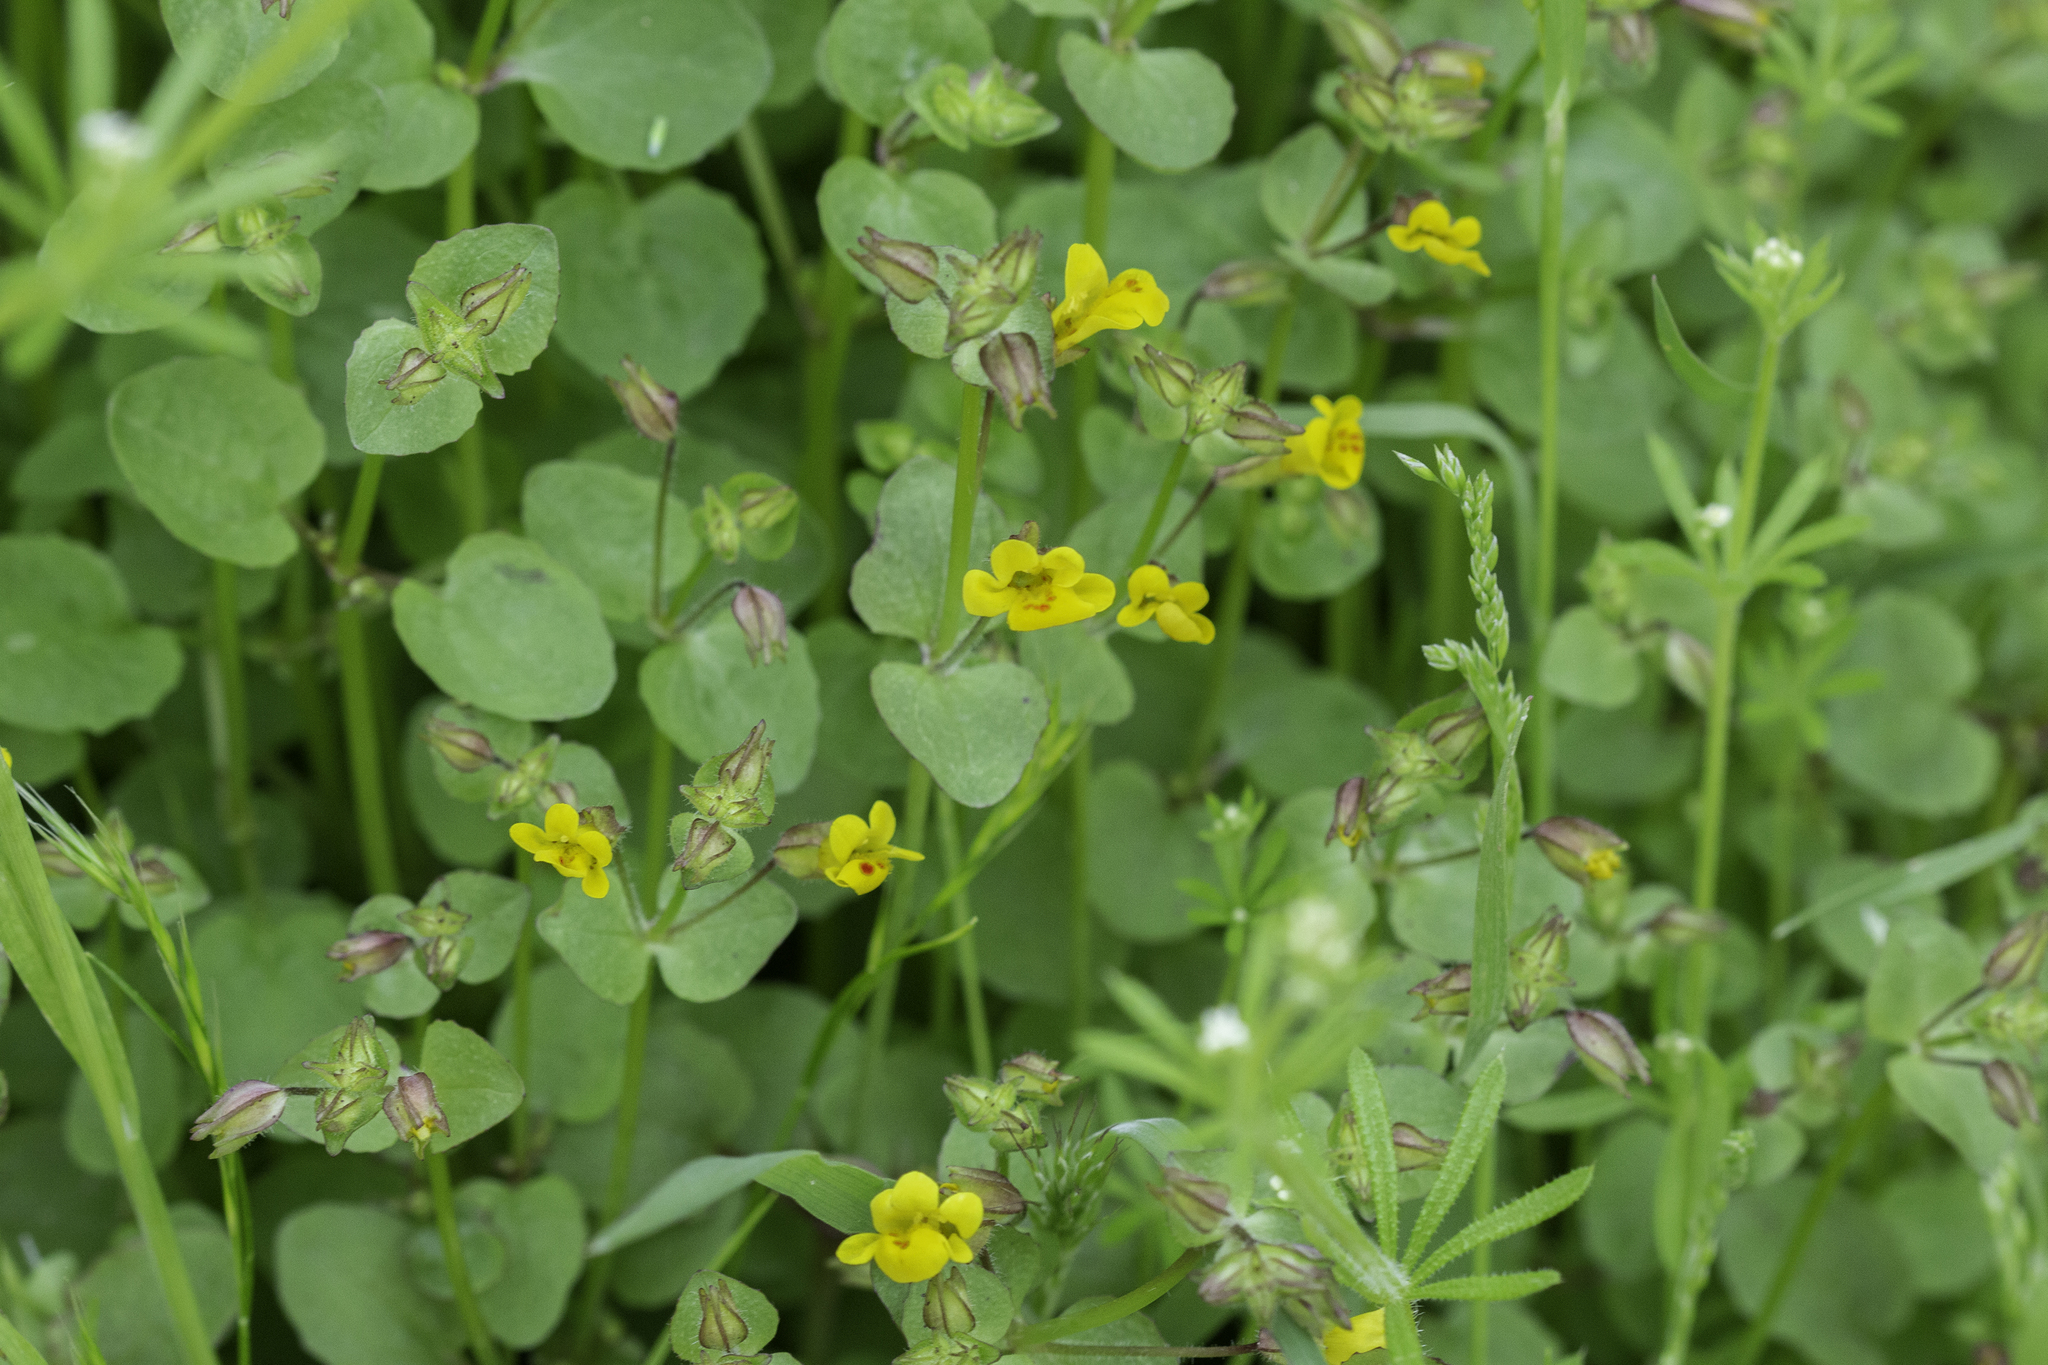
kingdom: Plantae
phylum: Tracheophyta
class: Magnoliopsida
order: Lamiales
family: Phrymaceae
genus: Erythranthe
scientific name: Erythranthe cordata
